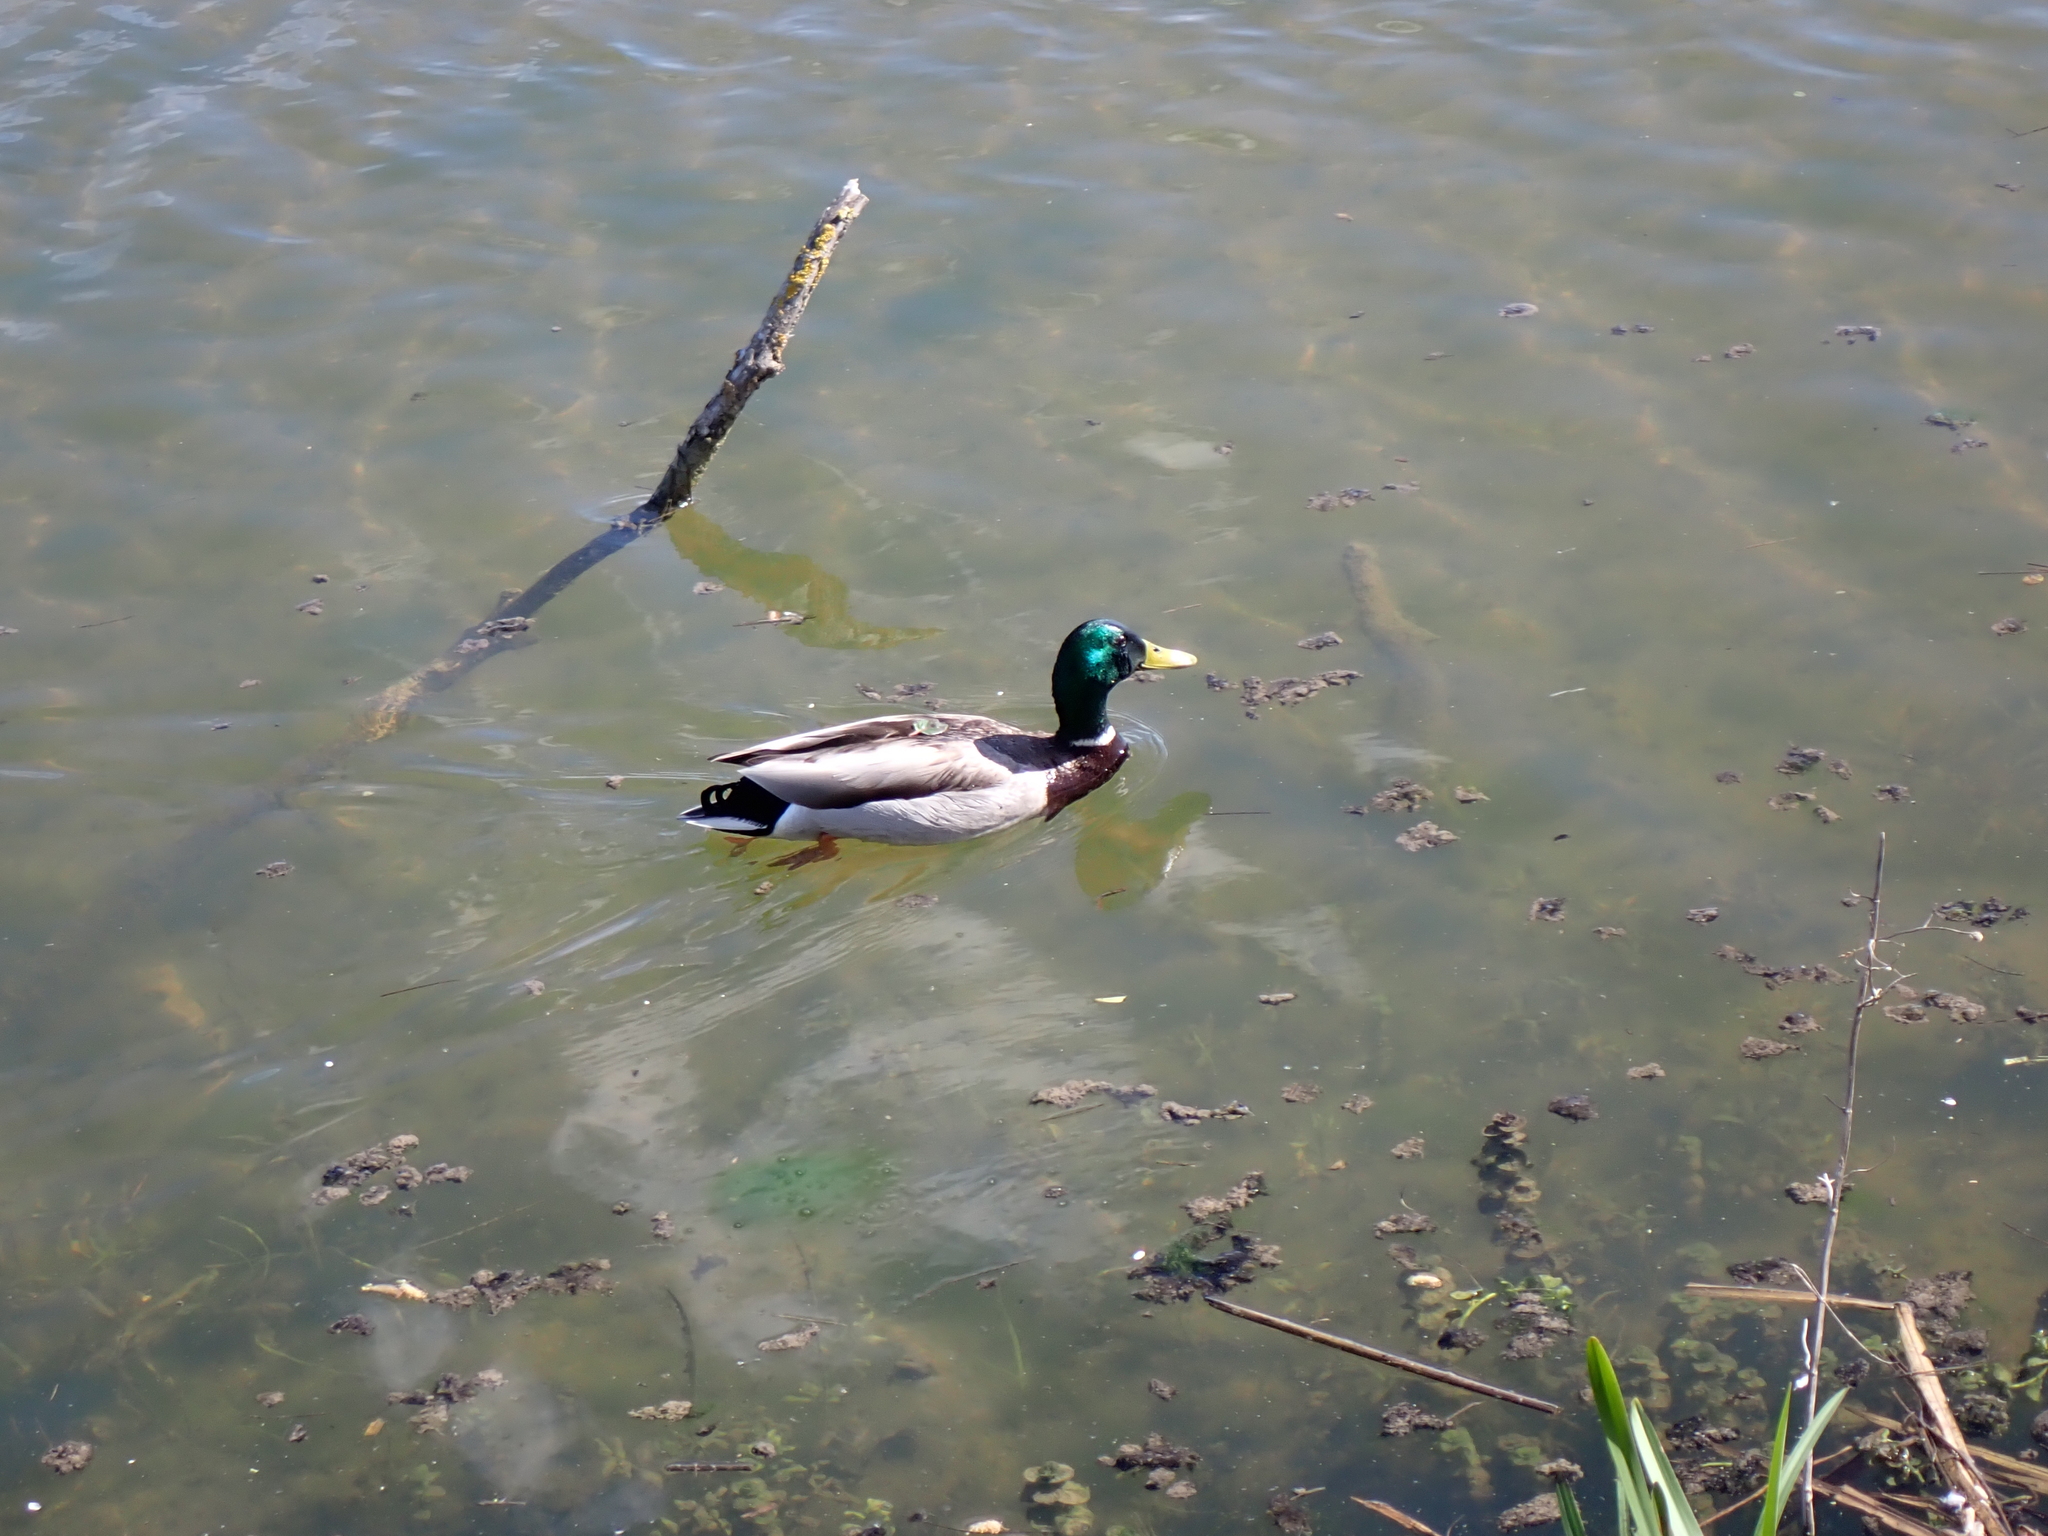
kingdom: Animalia
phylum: Chordata
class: Aves
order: Anseriformes
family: Anatidae
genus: Anas
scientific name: Anas platyrhynchos
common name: Mallard
